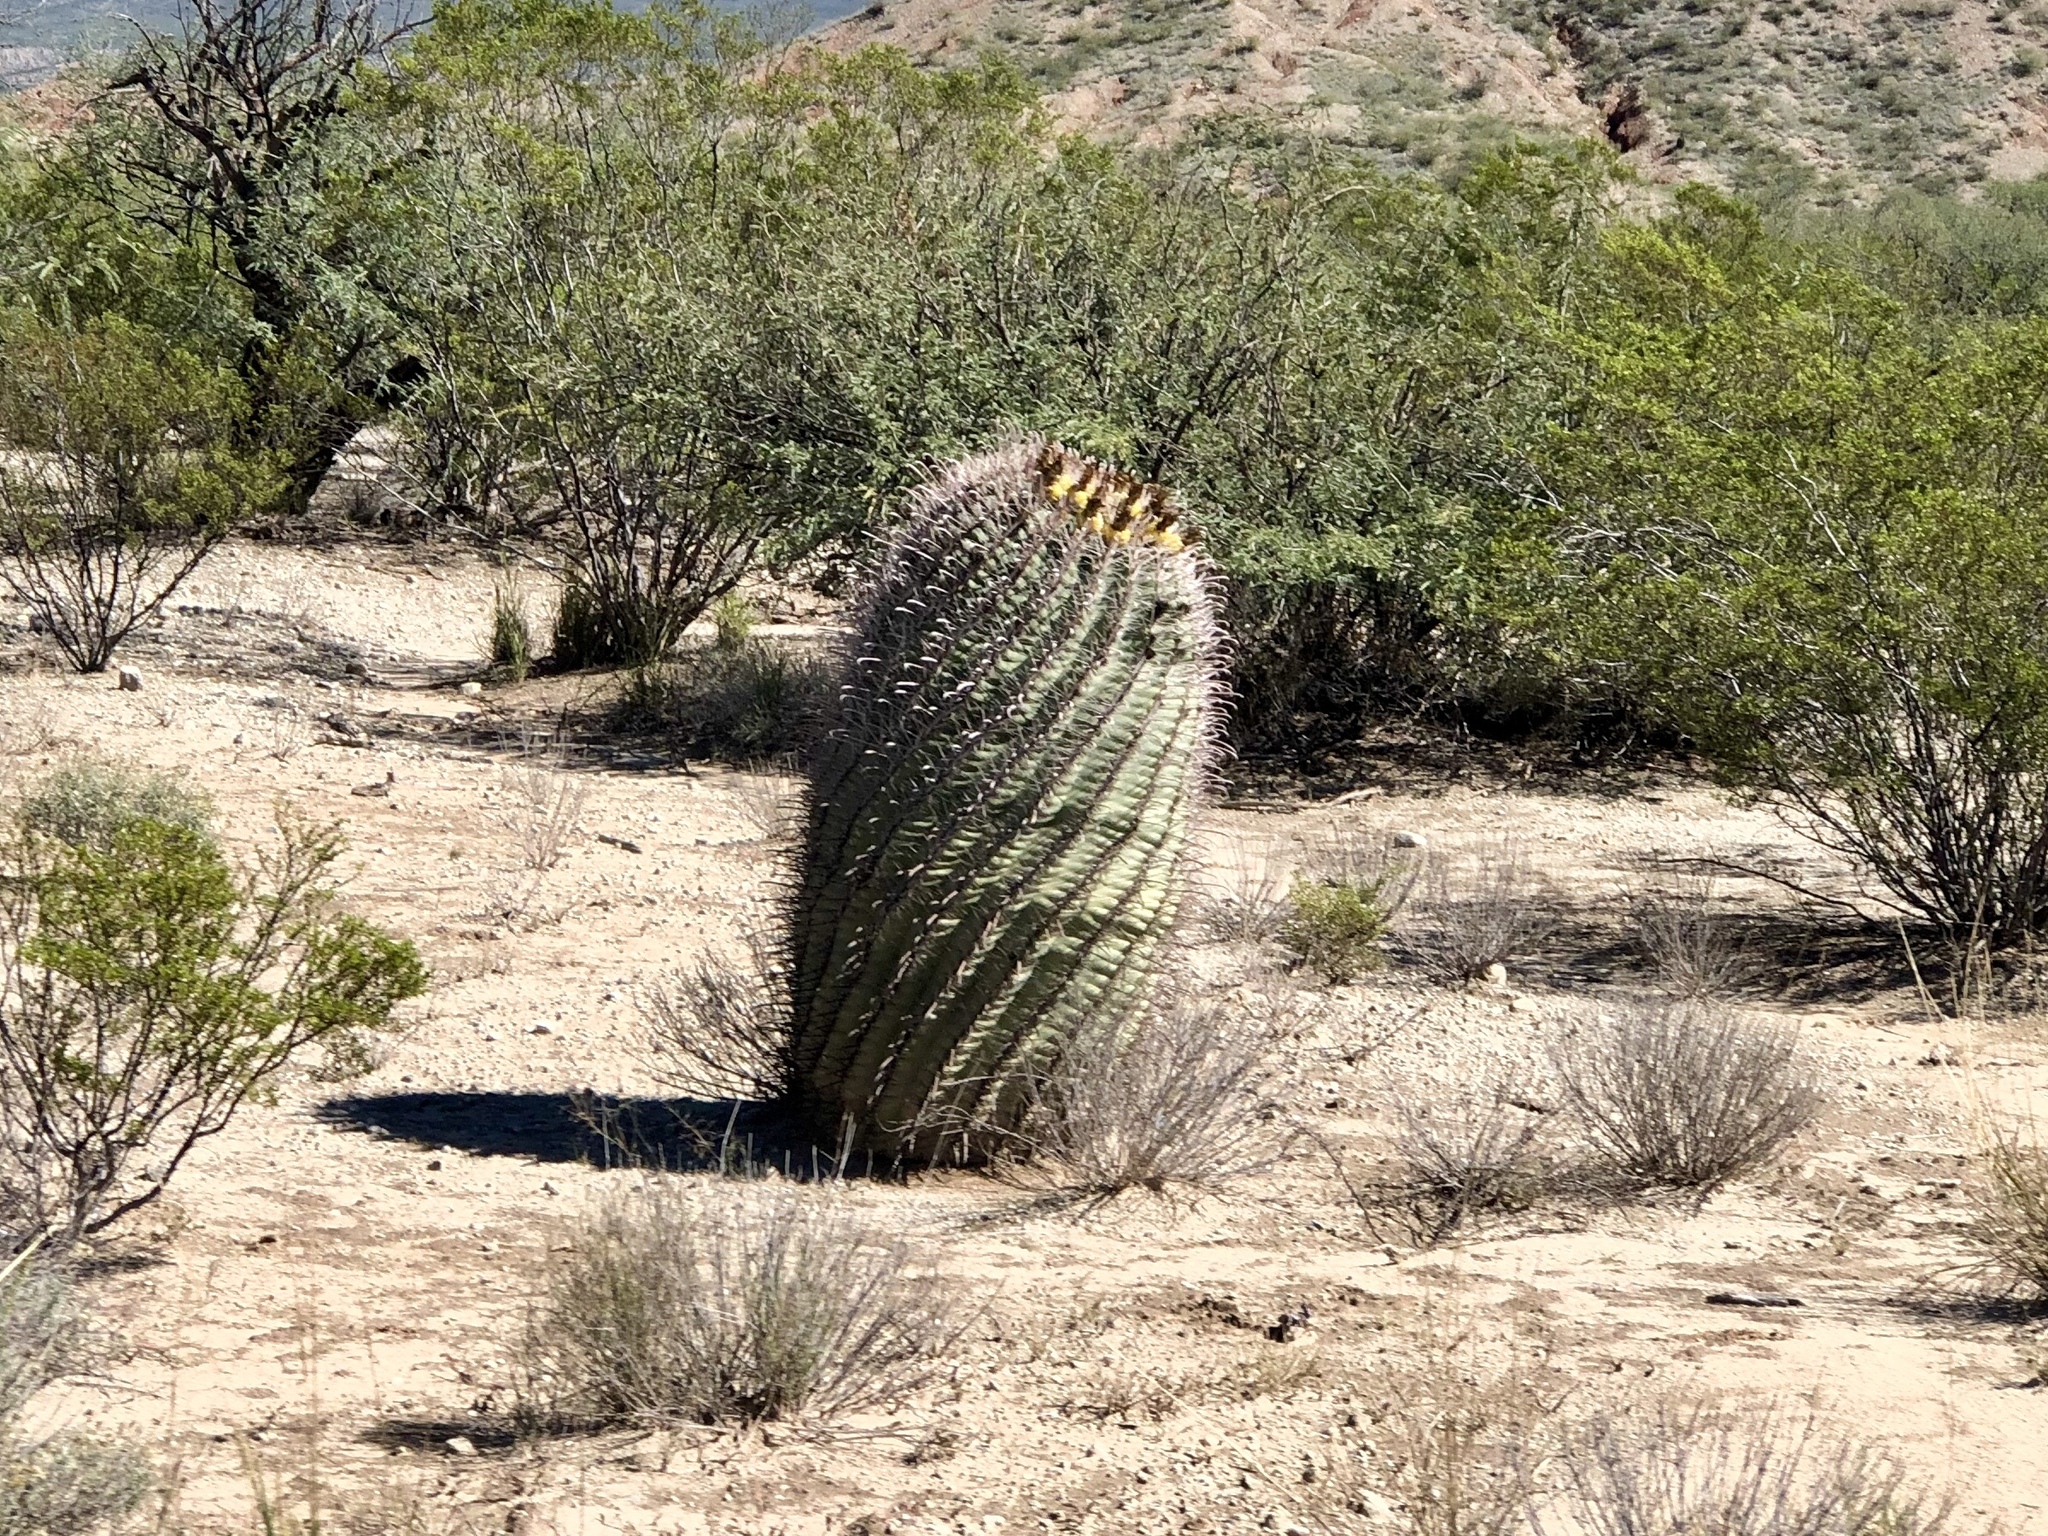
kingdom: Plantae
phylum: Tracheophyta
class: Magnoliopsida
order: Caryophyllales
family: Cactaceae
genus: Ferocactus
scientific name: Ferocactus wislizeni
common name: Candy barrel cactus
